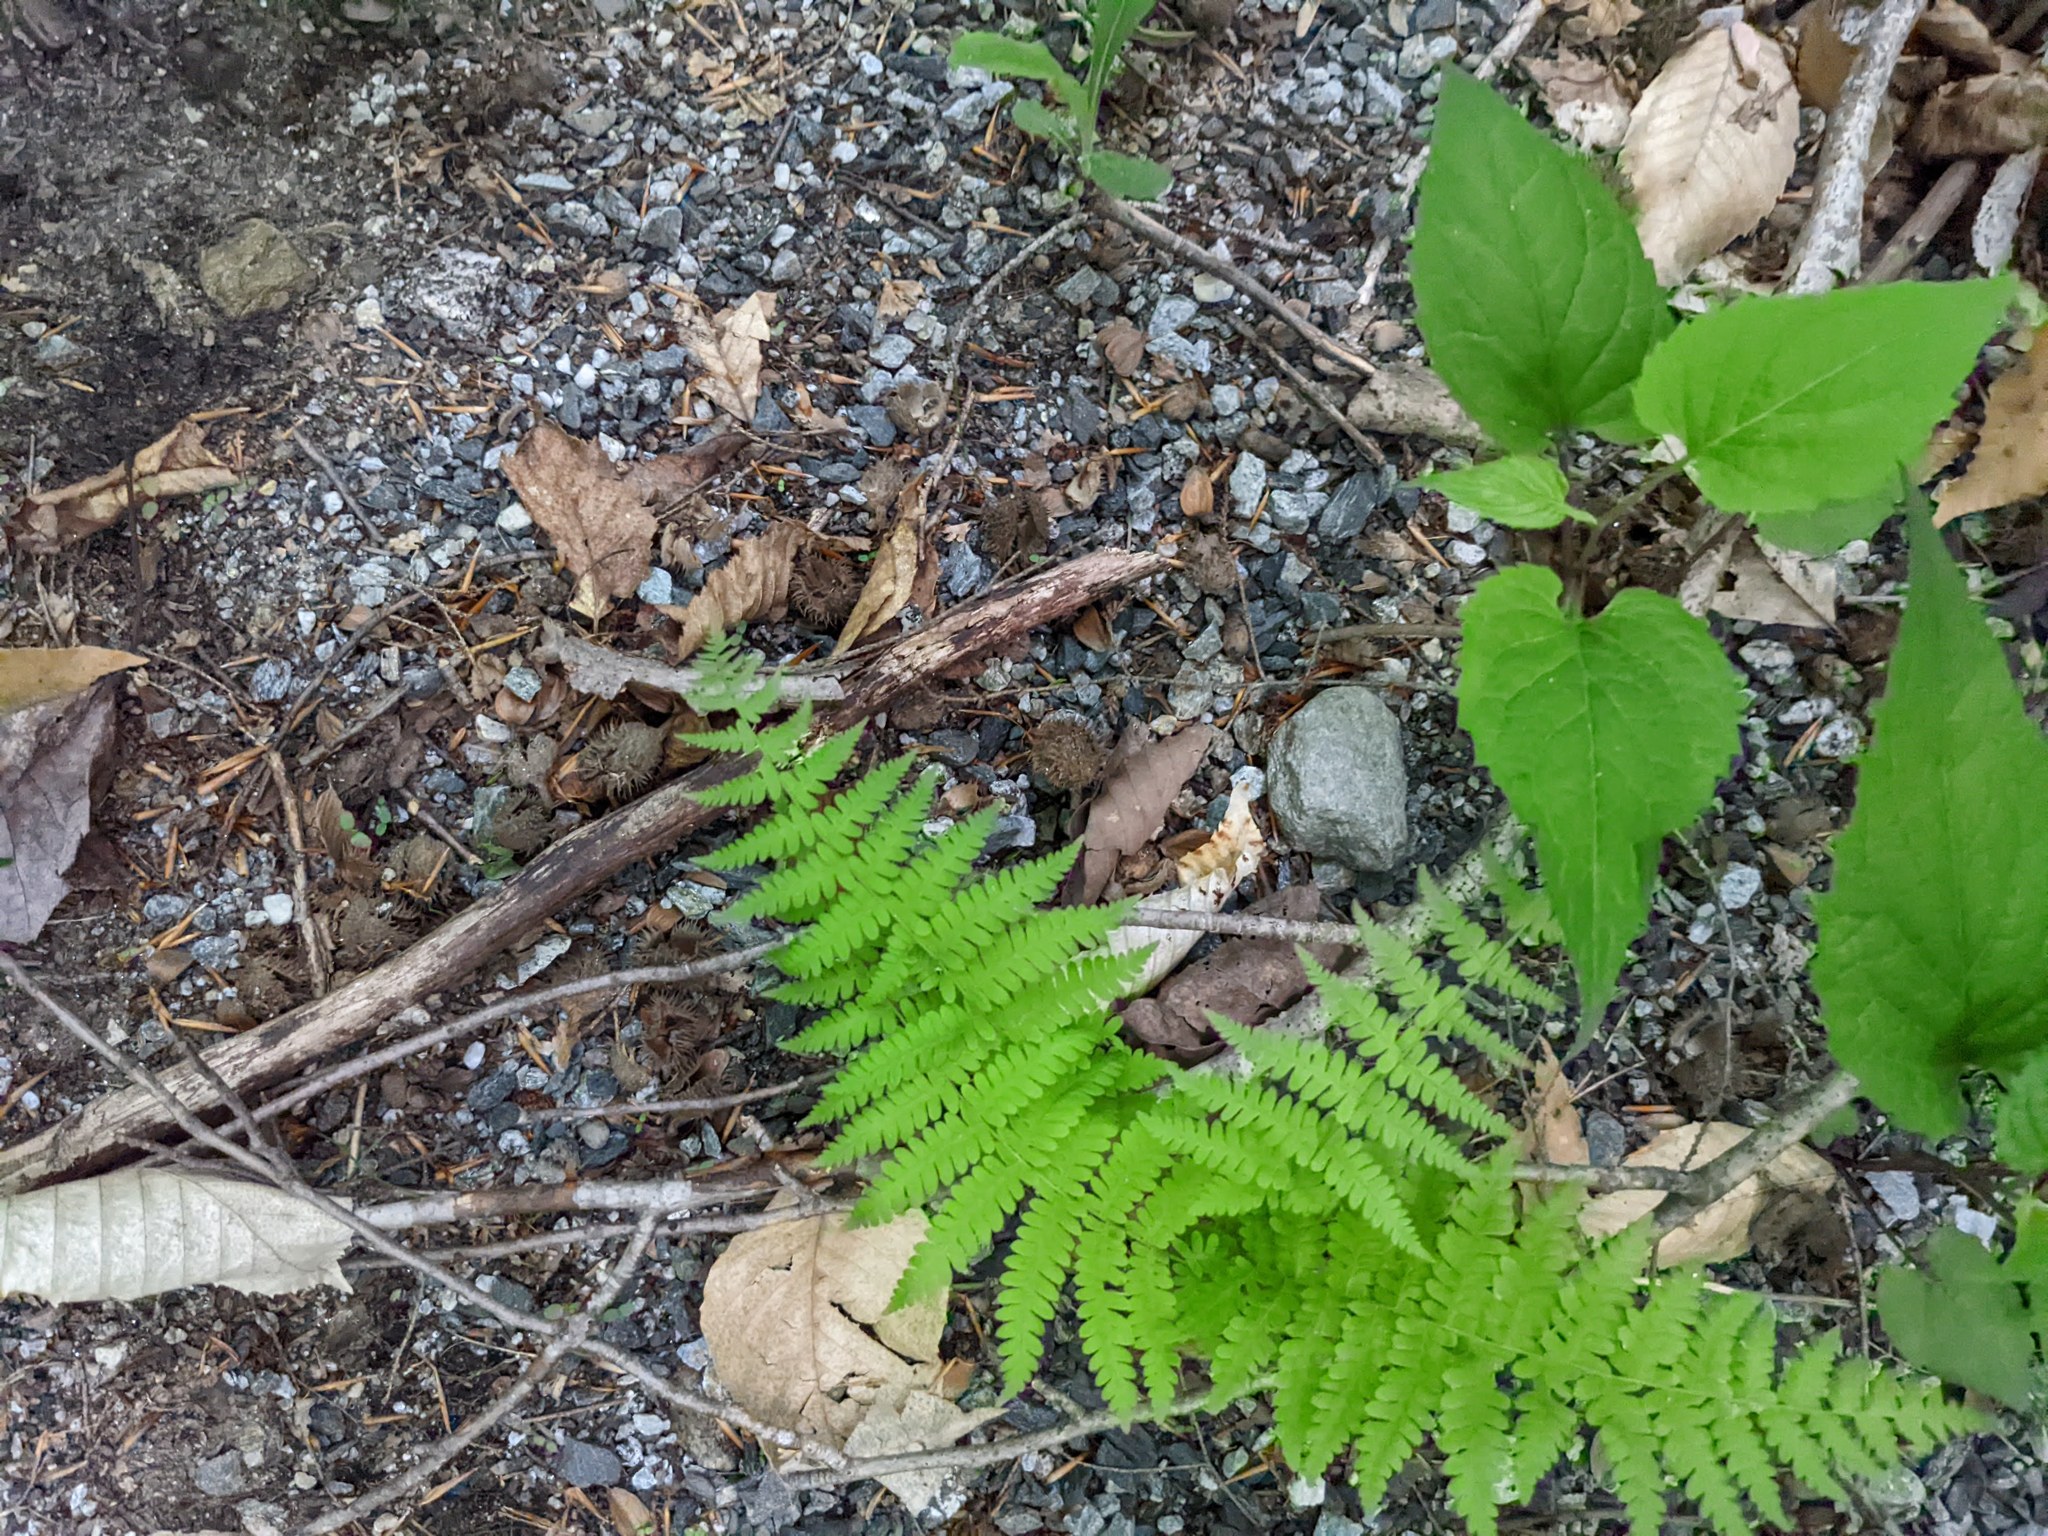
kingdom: Plantae
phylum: Tracheophyta
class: Polypodiopsida
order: Polypodiales
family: Thelypteridaceae
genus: Amauropelta
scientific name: Amauropelta noveboracensis
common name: New york fern
